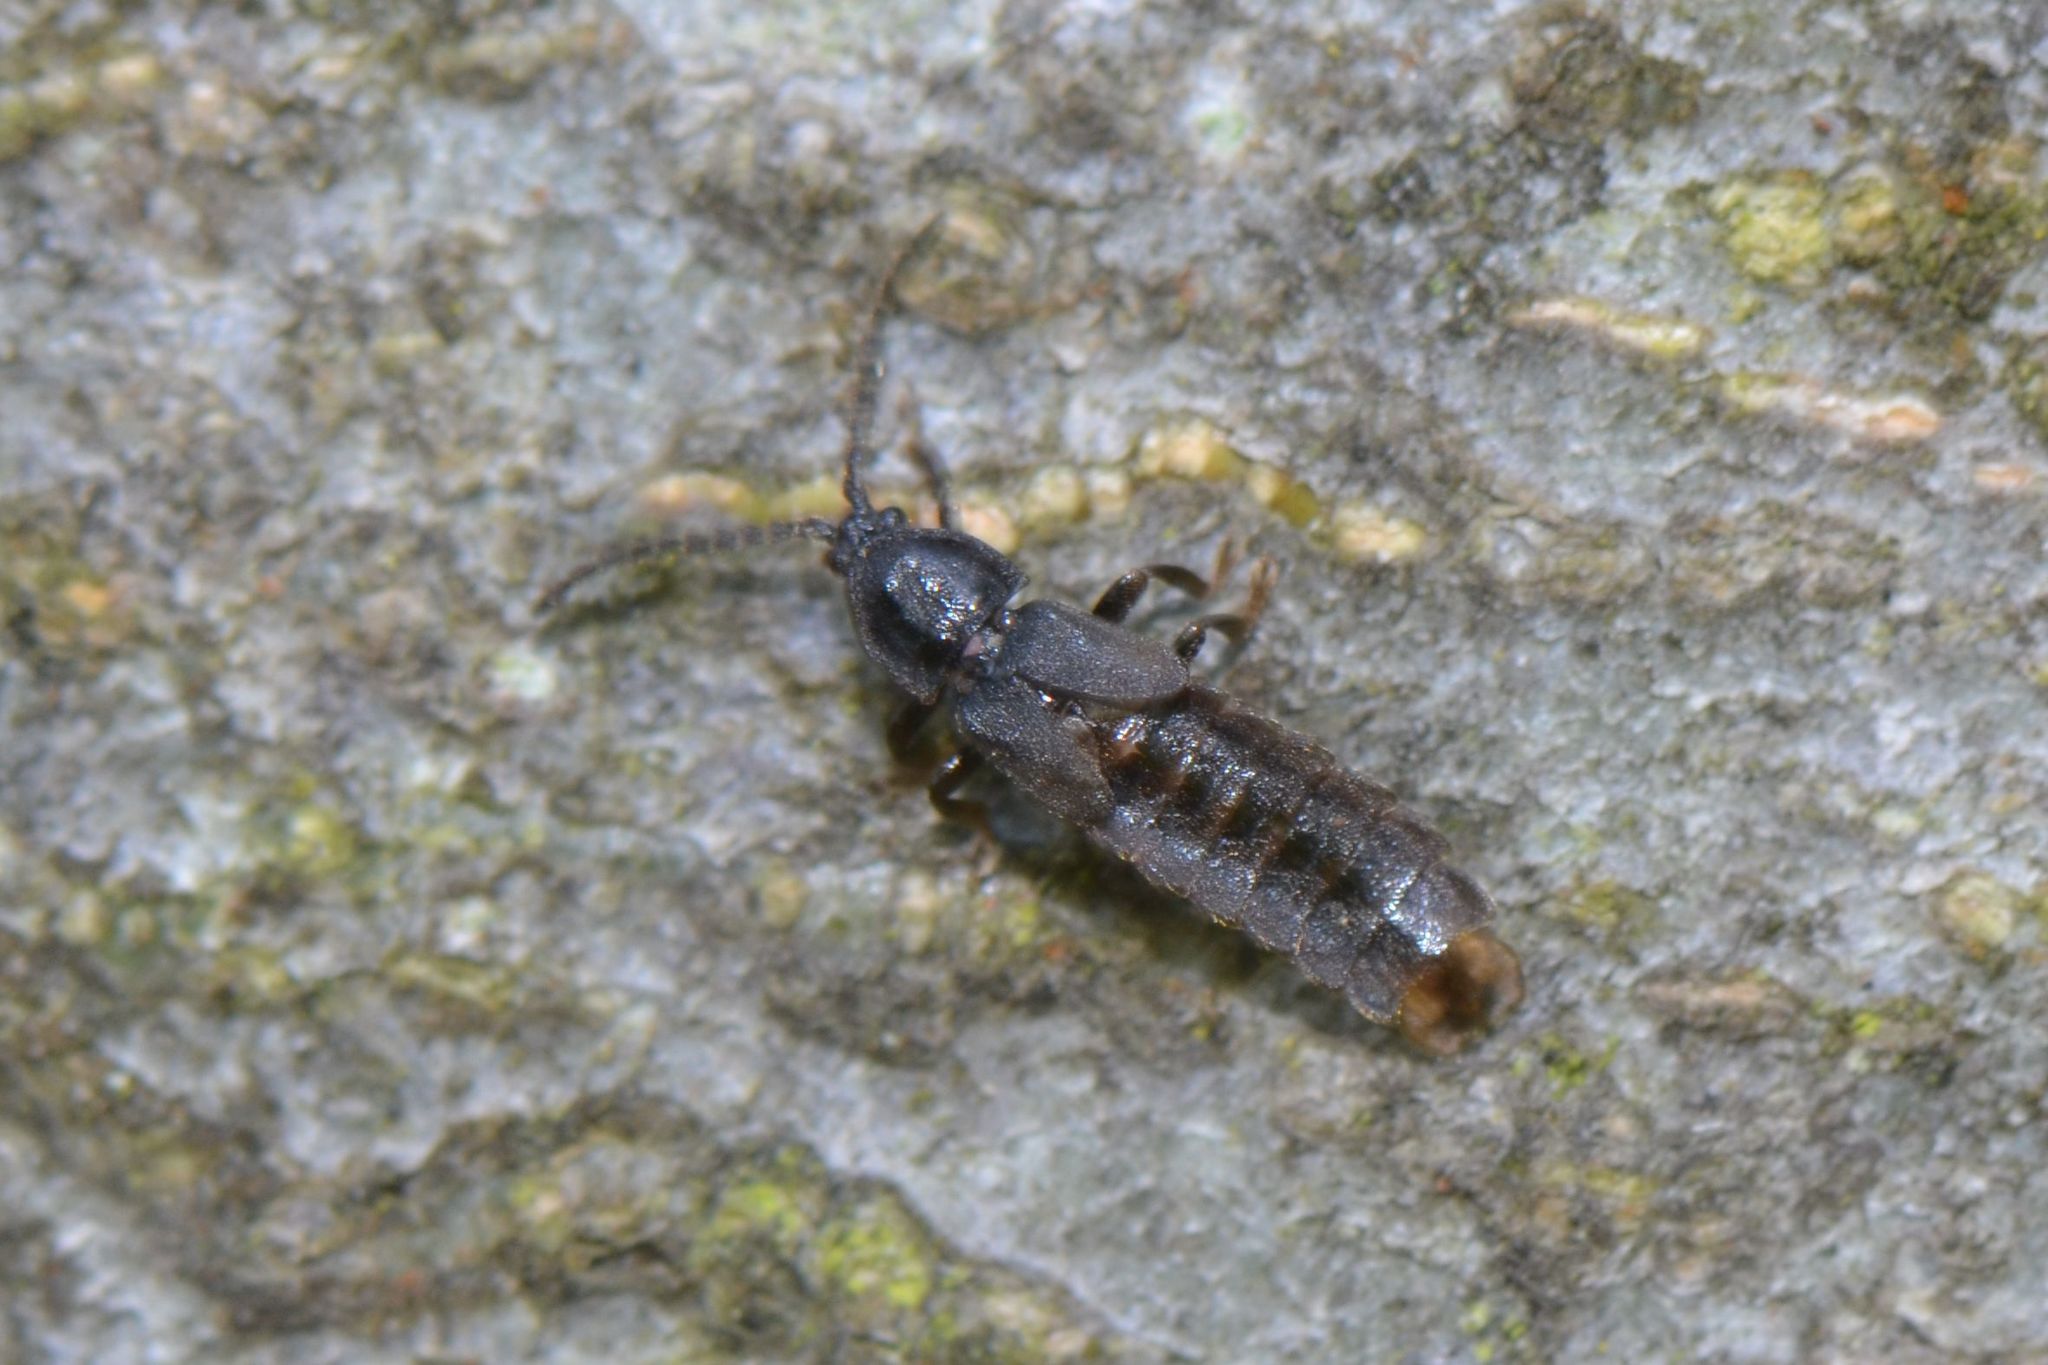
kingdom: Animalia
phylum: Arthropoda
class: Insecta
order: Coleoptera
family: Lampyridae
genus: Phosphaenus
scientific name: Phosphaenus hemipterus
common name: Short-winged firefly
